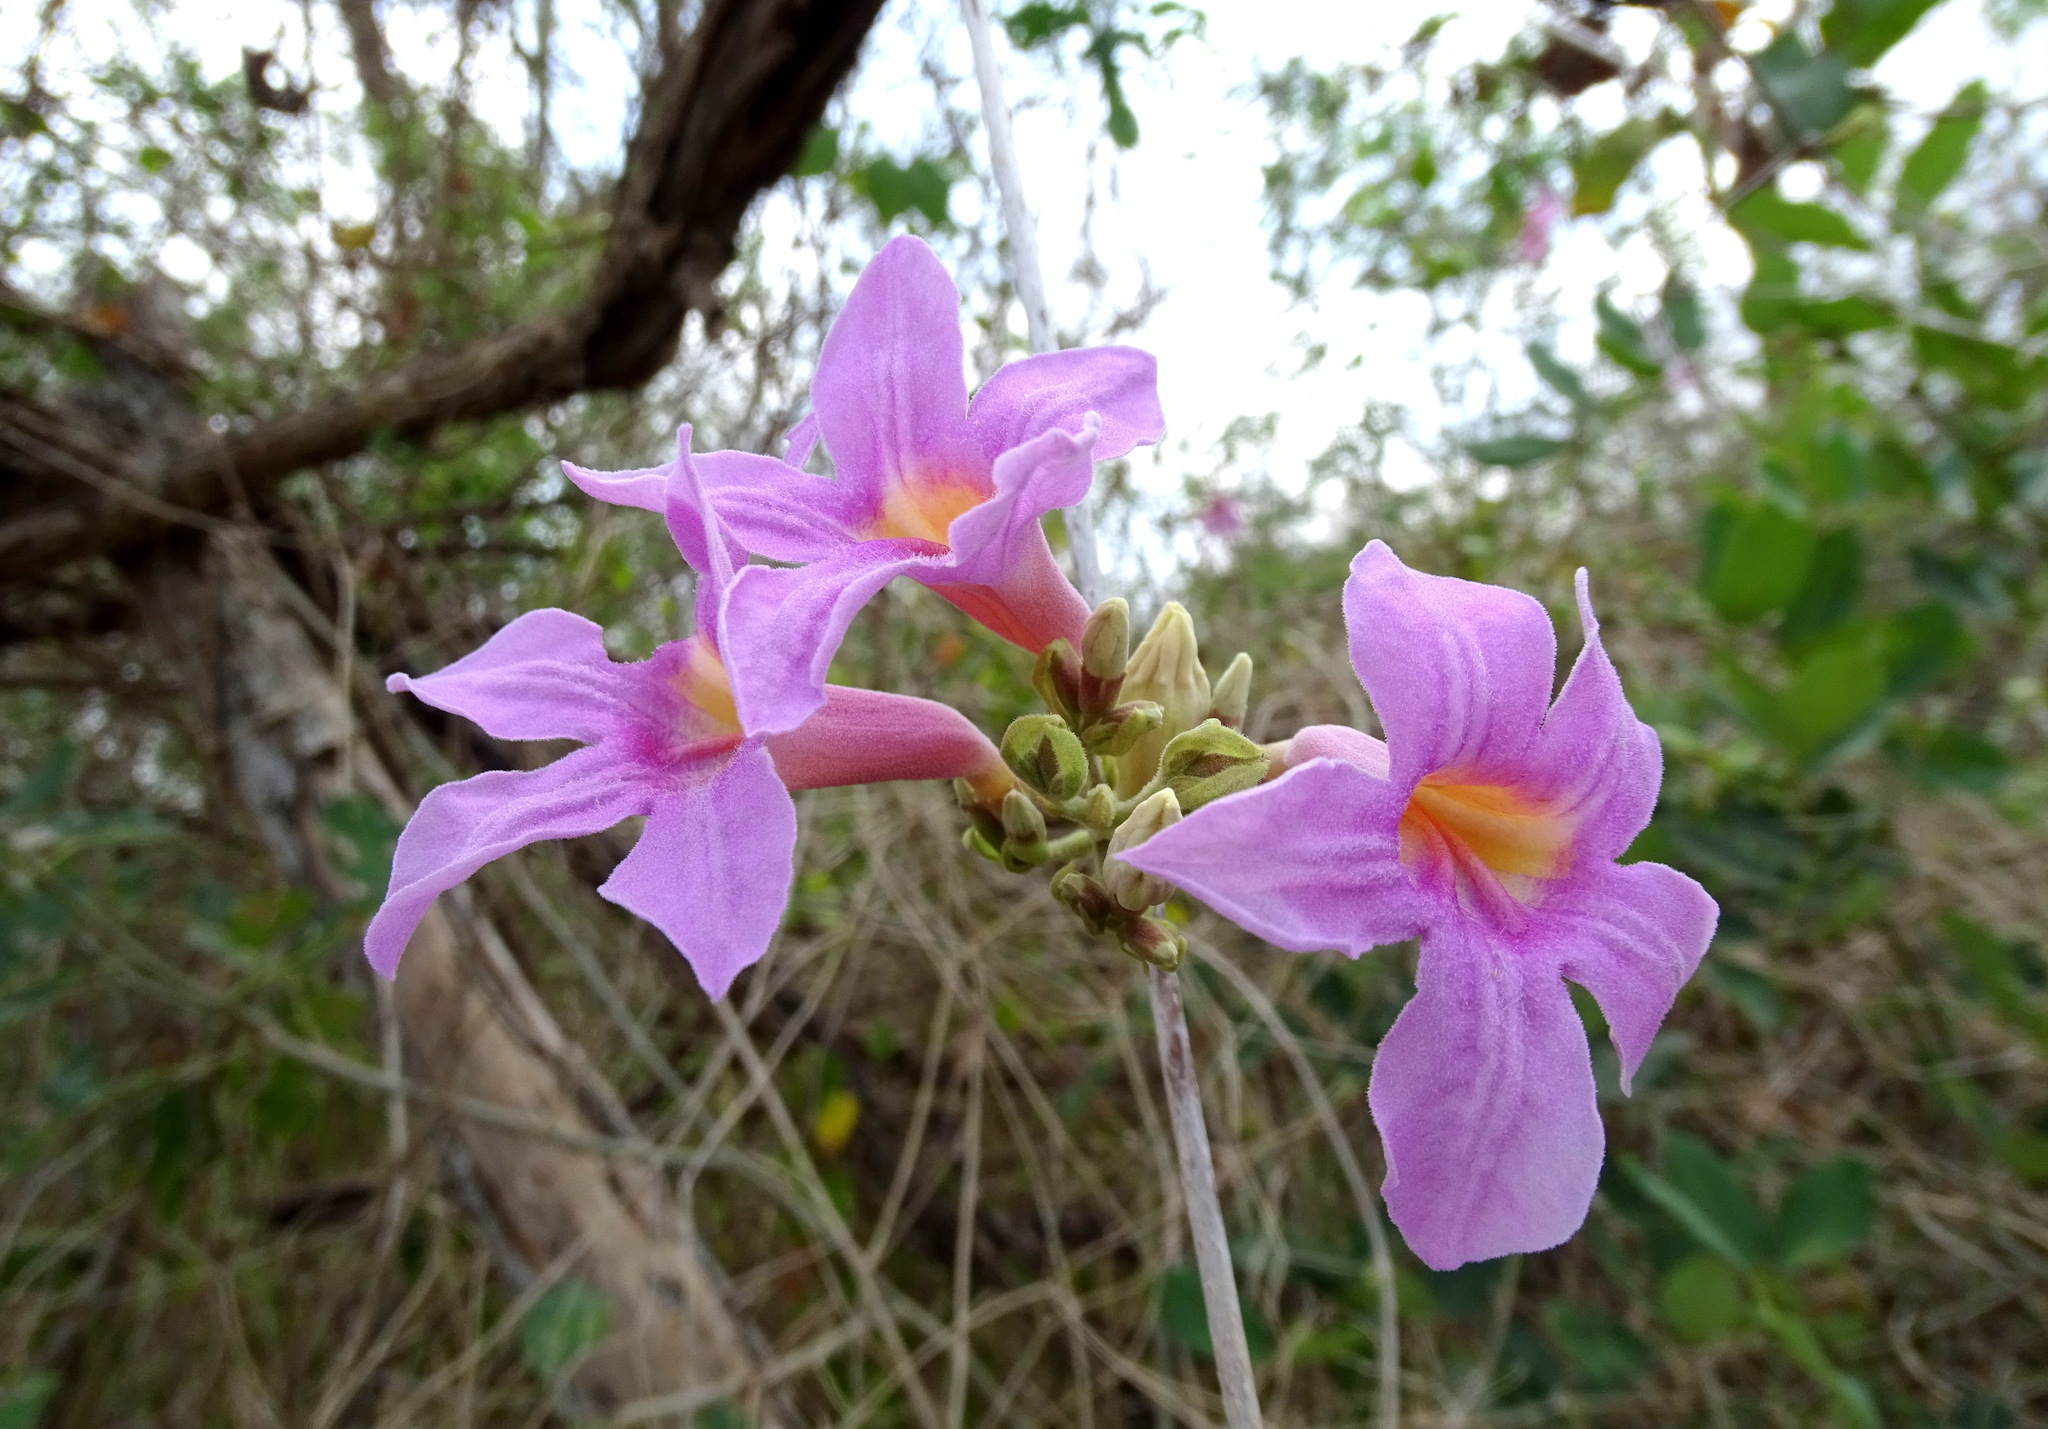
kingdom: Plantae
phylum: Tracheophyta
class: Magnoliopsida
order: Lamiales
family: Bignoniaceae
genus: Xylophragma
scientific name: Xylophragma seemanniana
